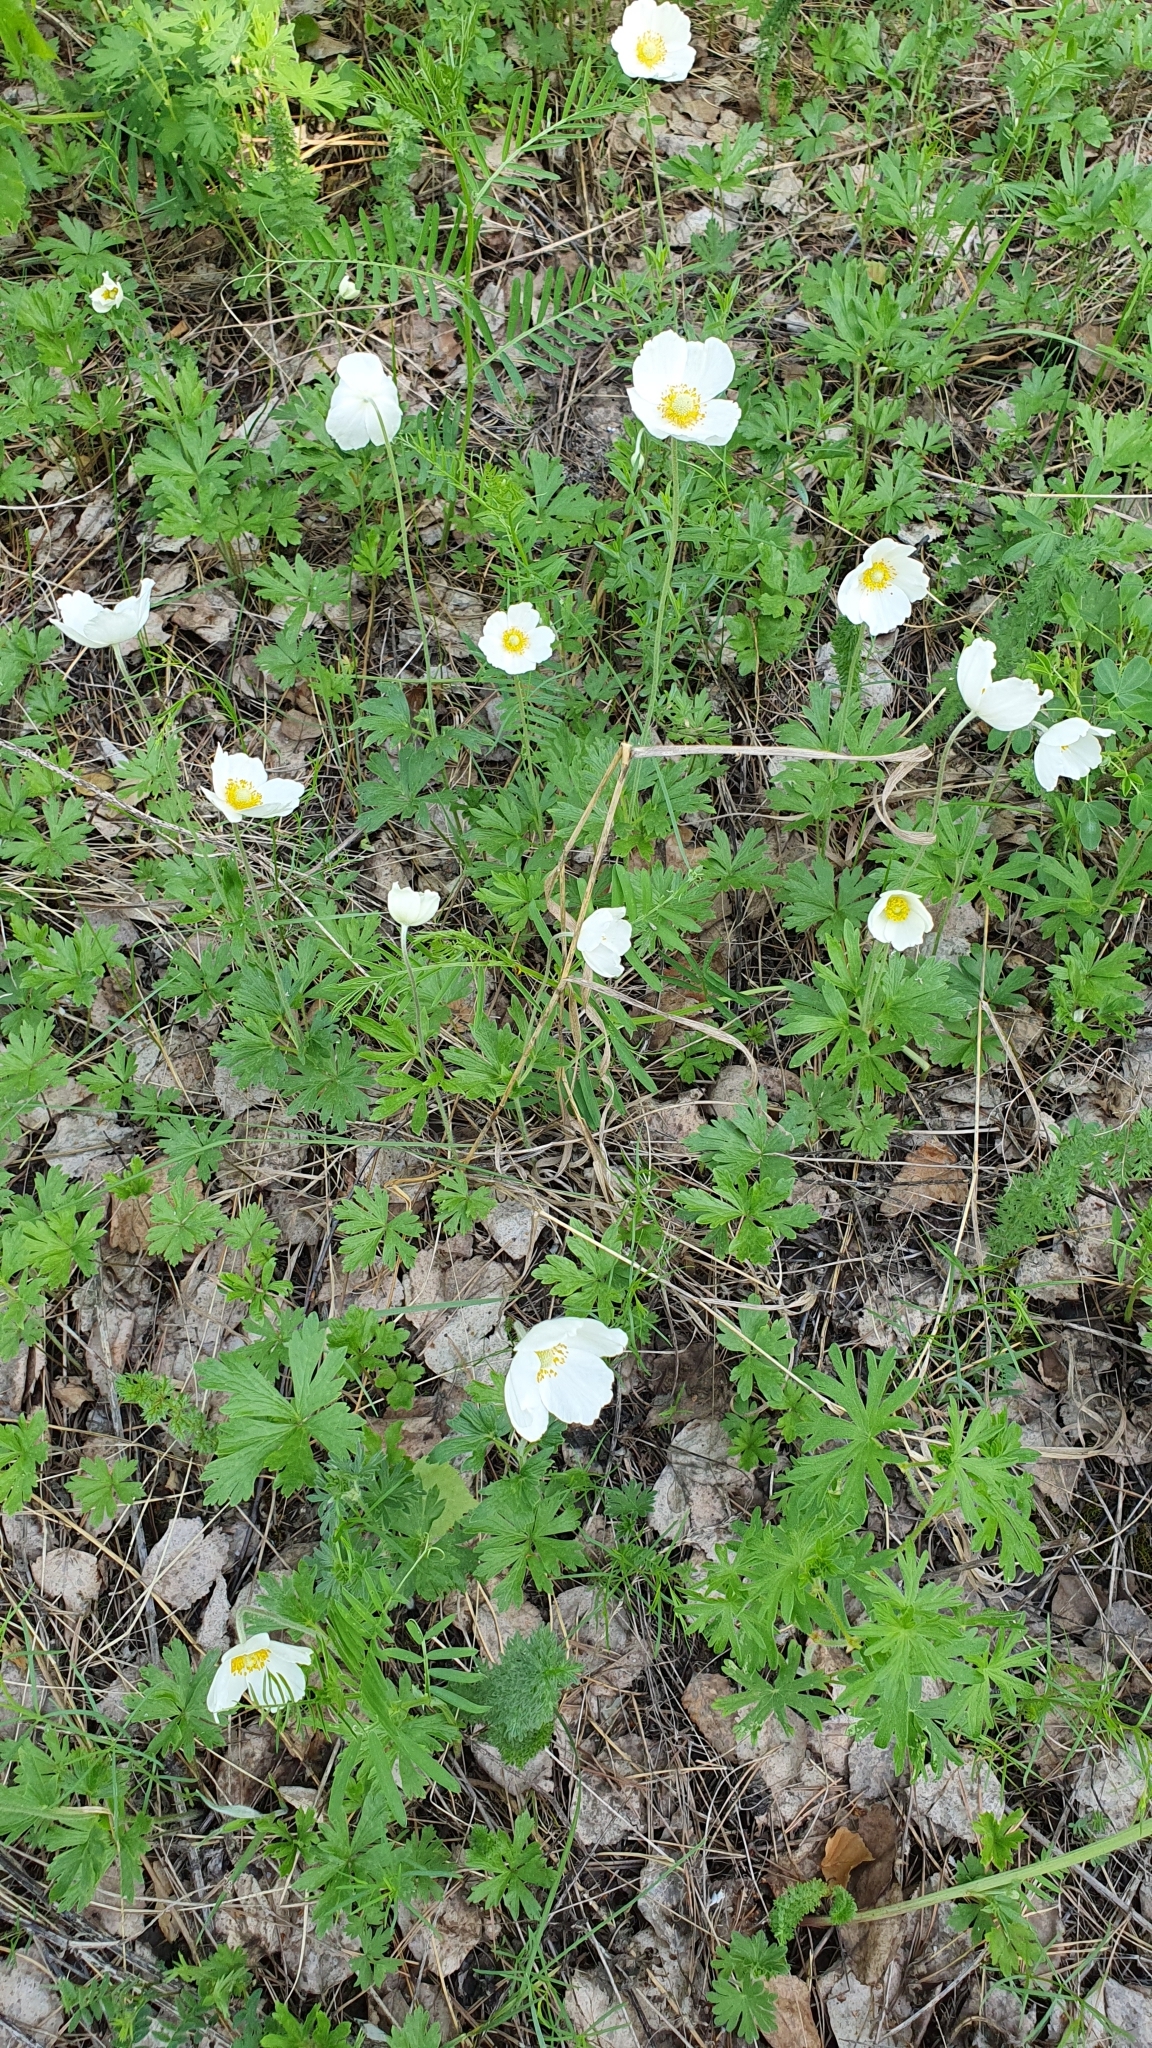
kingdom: Plantae
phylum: Tracheophyta
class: Magnoliopsida
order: Ranunculales
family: Ranunculaceae
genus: Anemone
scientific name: Anemone sylvestris
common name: Snowdrop anemone
